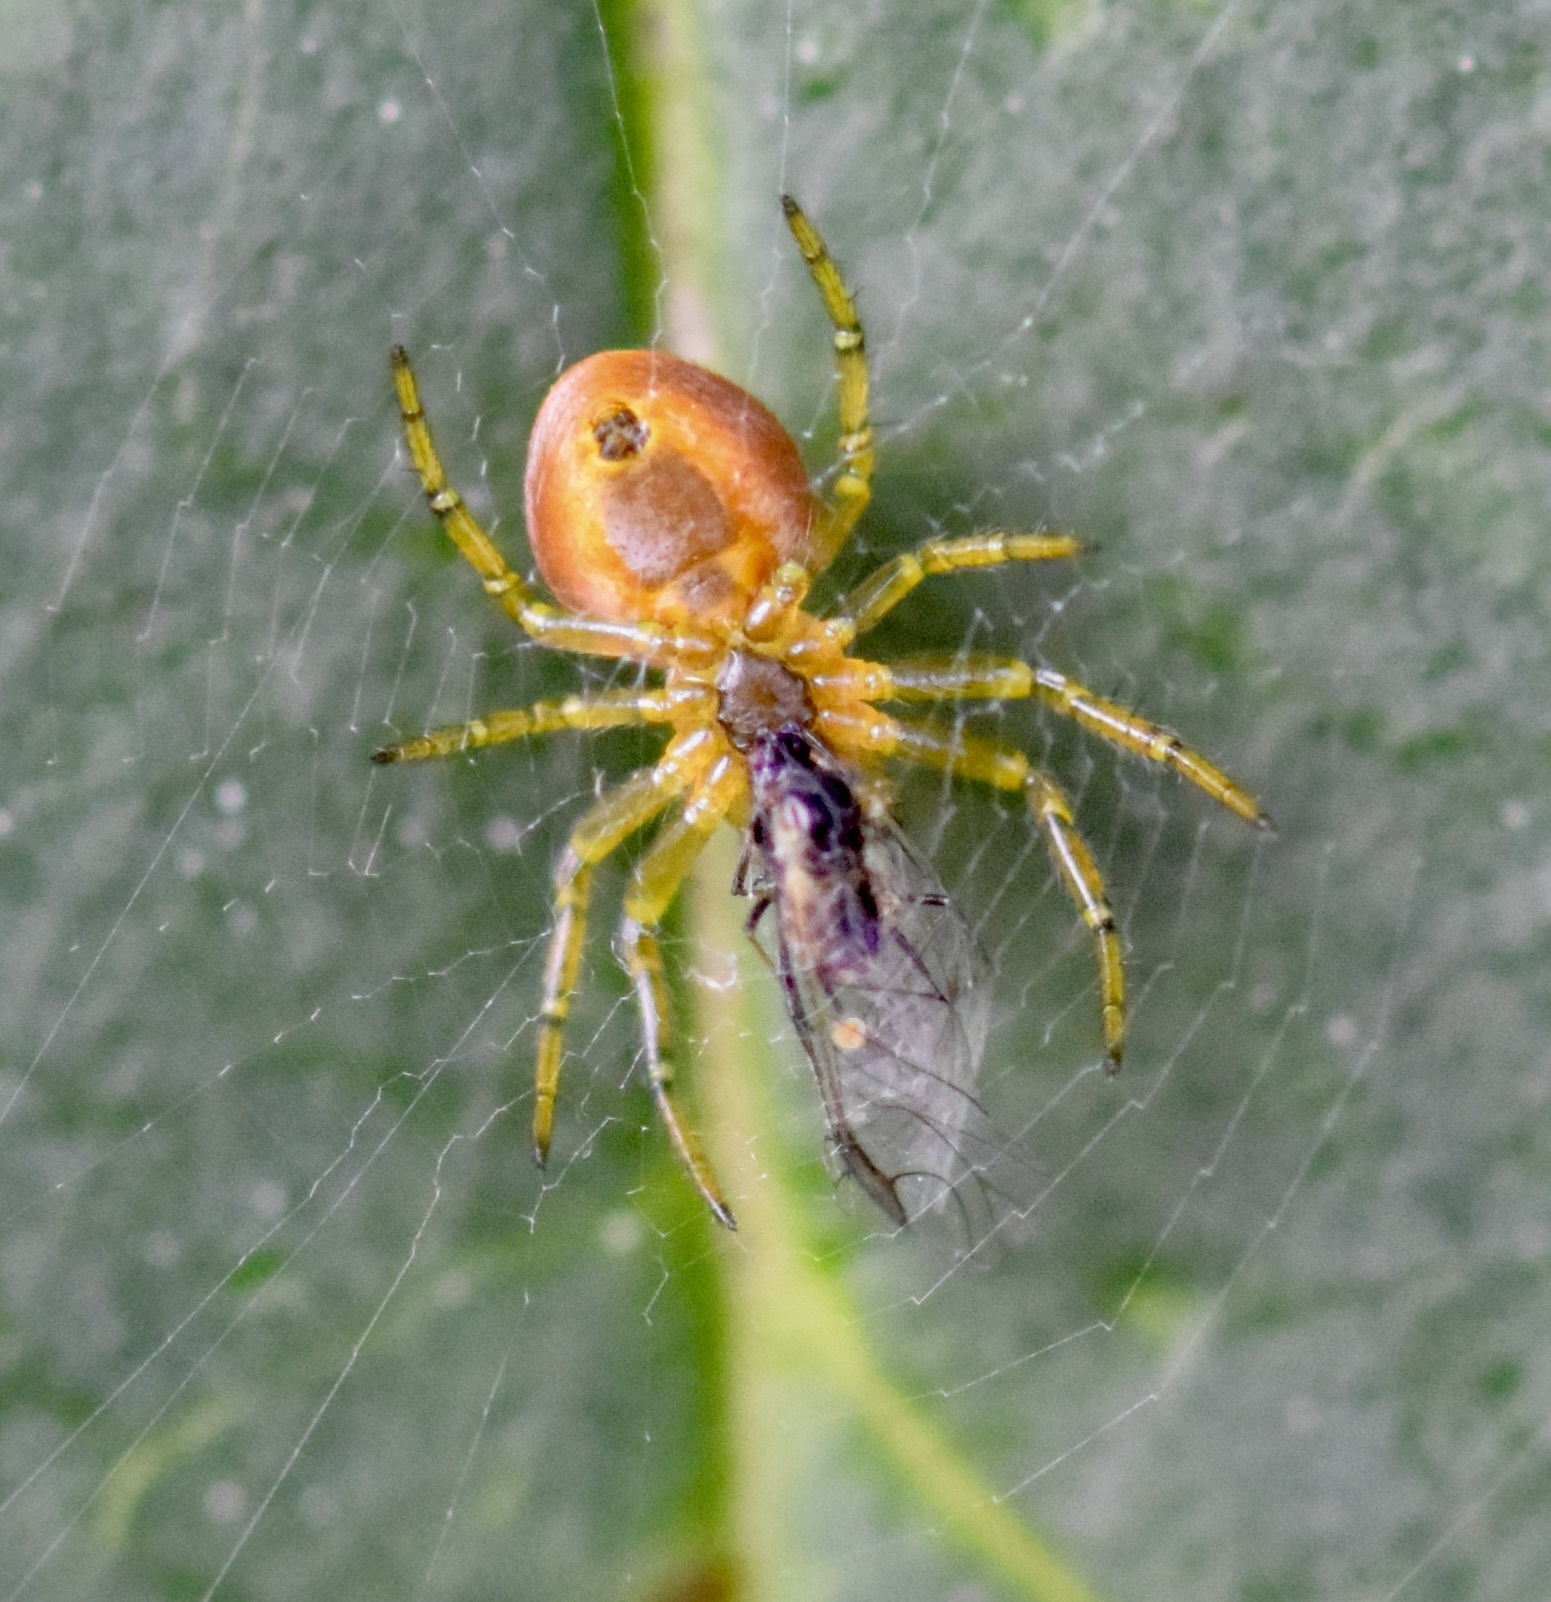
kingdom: Animalia
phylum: Arthropoda
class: Arachnida
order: Araneae
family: Araneidae
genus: Araniella
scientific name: Araniella displicata
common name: Sixspotted orb weaver
